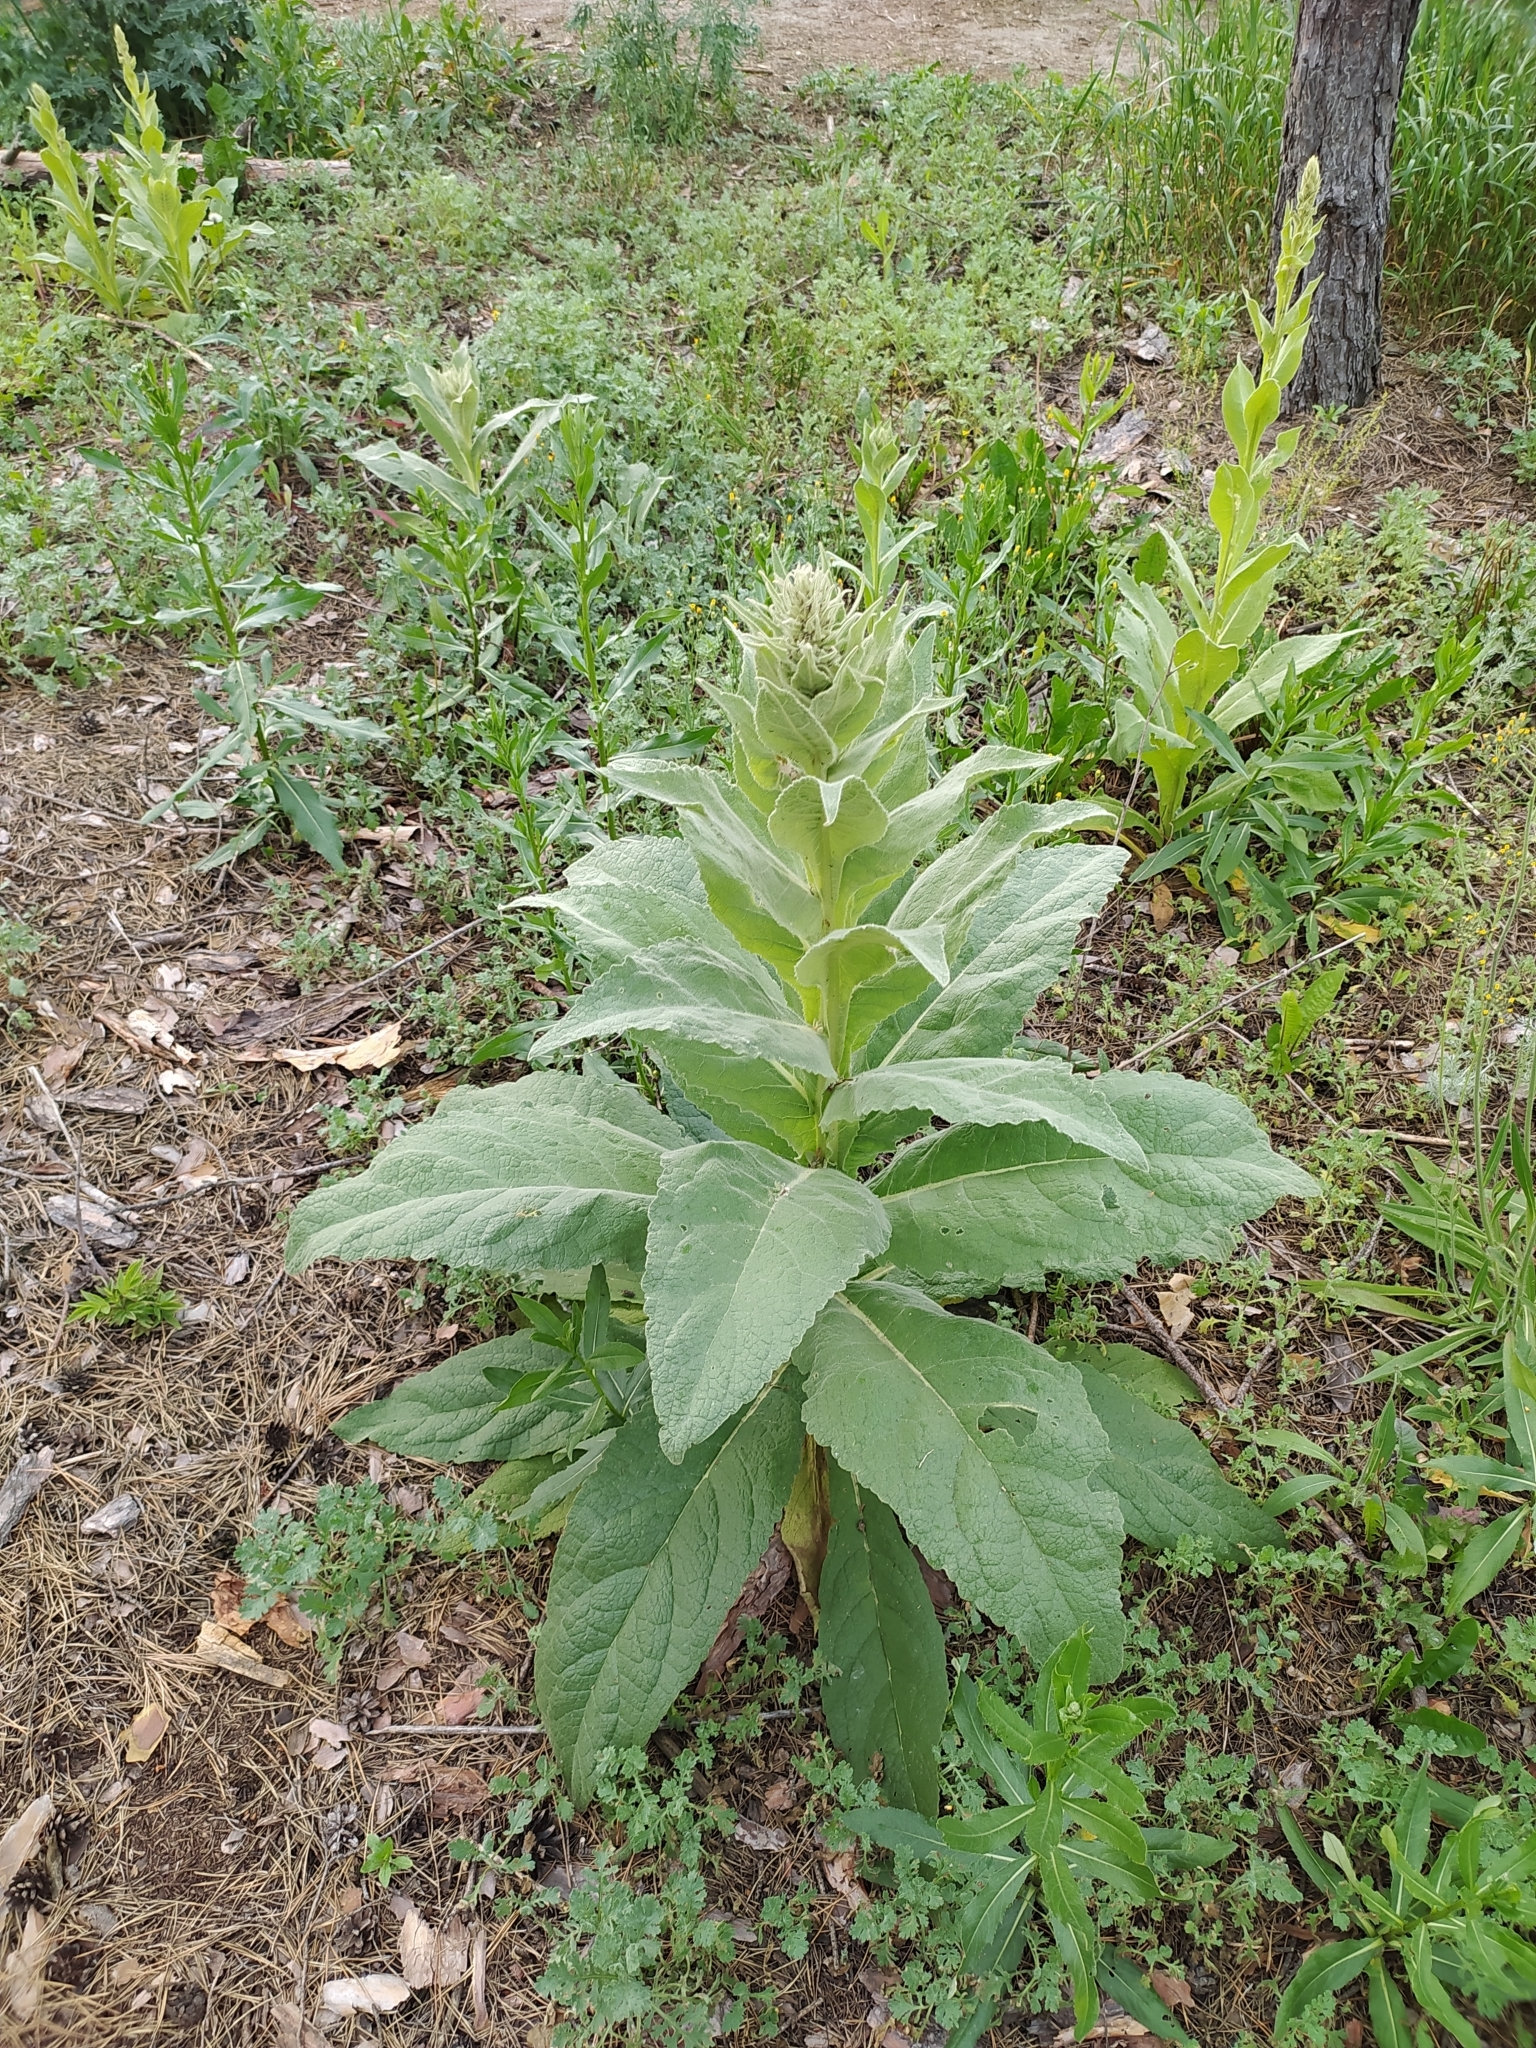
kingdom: Plantae
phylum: Tracheophyta
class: Magnoliopsida
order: Lamiales
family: Scrophulariaceae
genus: Verbascum
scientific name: Verbascum thapsus
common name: Common mullein
